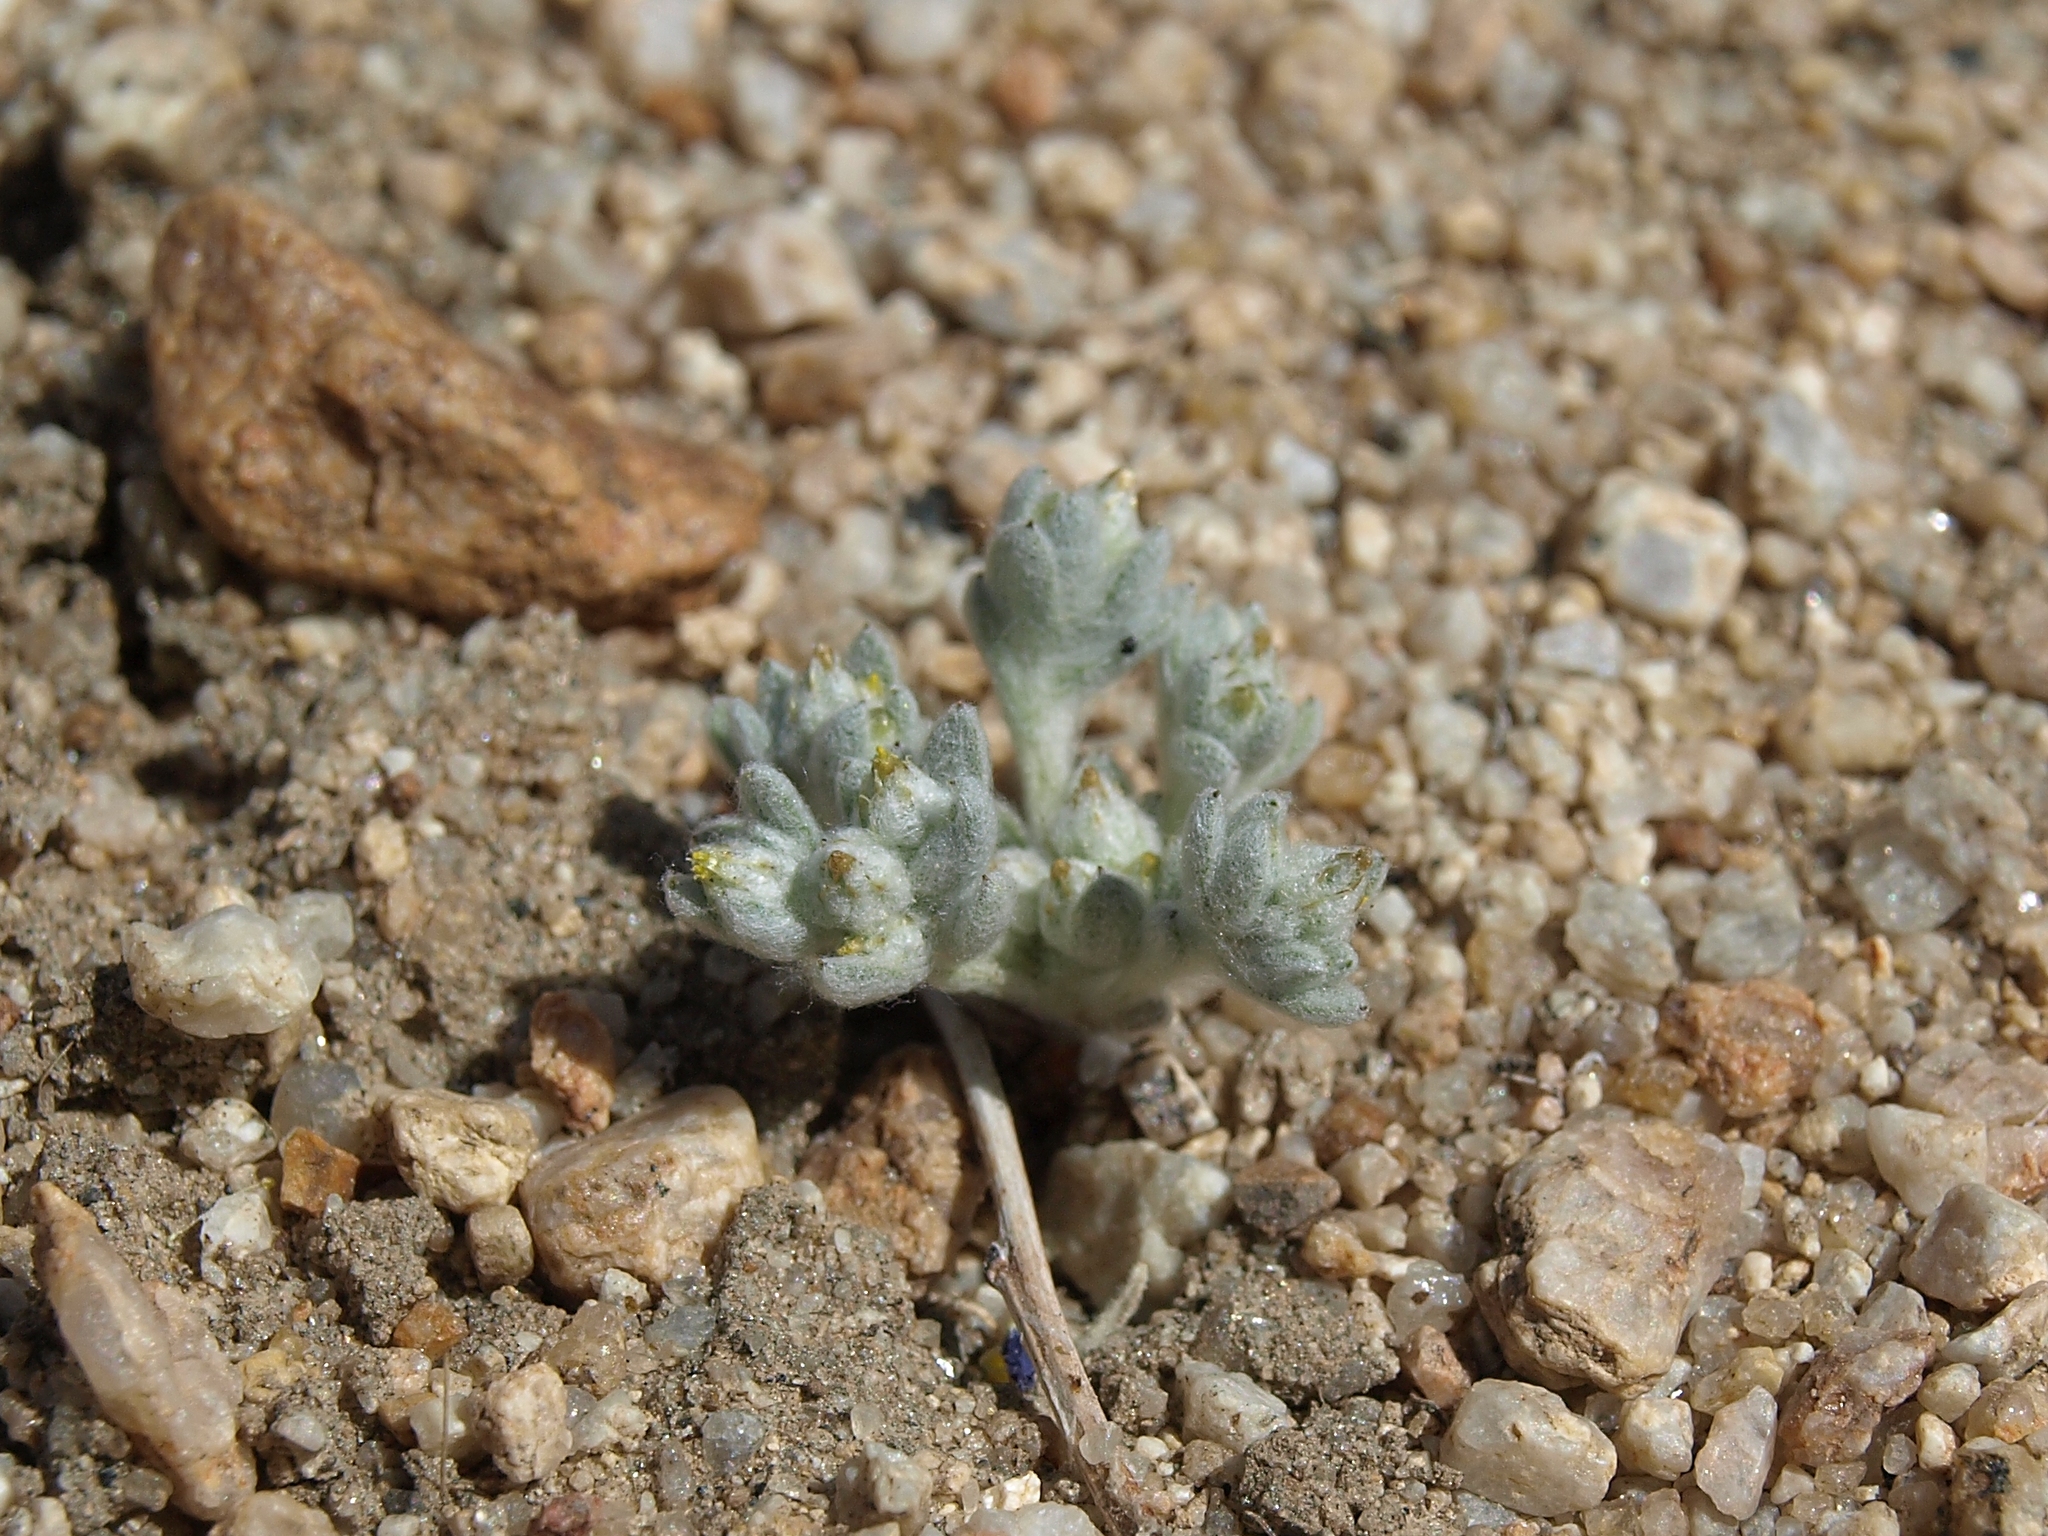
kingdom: Plantae
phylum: Tracheophyta
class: Magnoliopsida
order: Asterales
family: Asteraceae
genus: Logfia
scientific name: Logfia depressa
